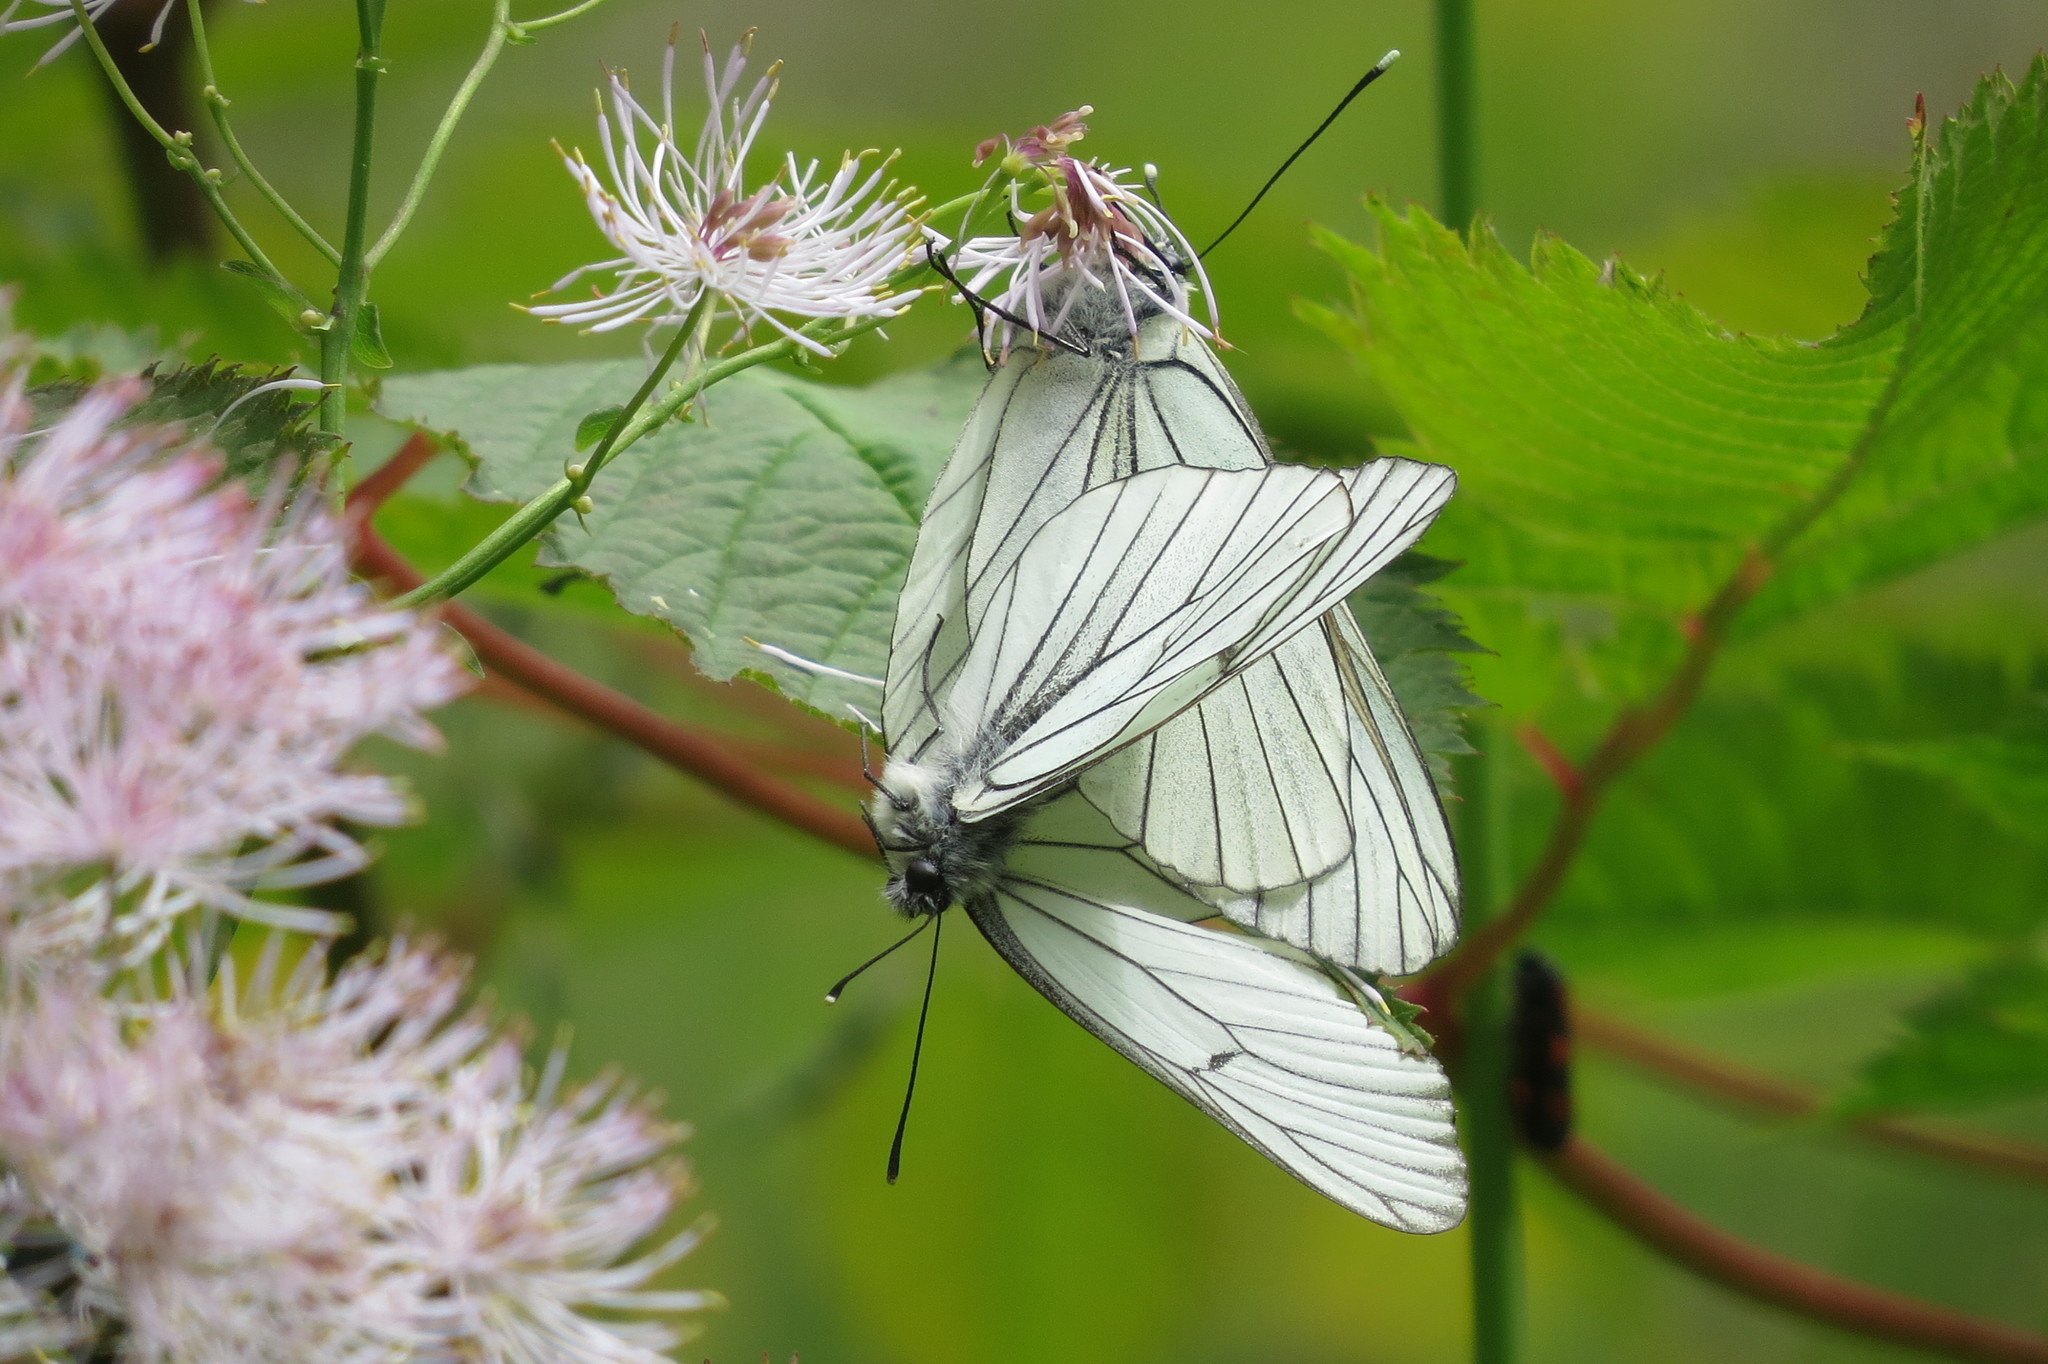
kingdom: Animalia
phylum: Arthropoda
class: Insecta
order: Lepidoptera
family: Pieridae
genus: Aporia
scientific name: Aporia crataegi
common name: Black-veined white
